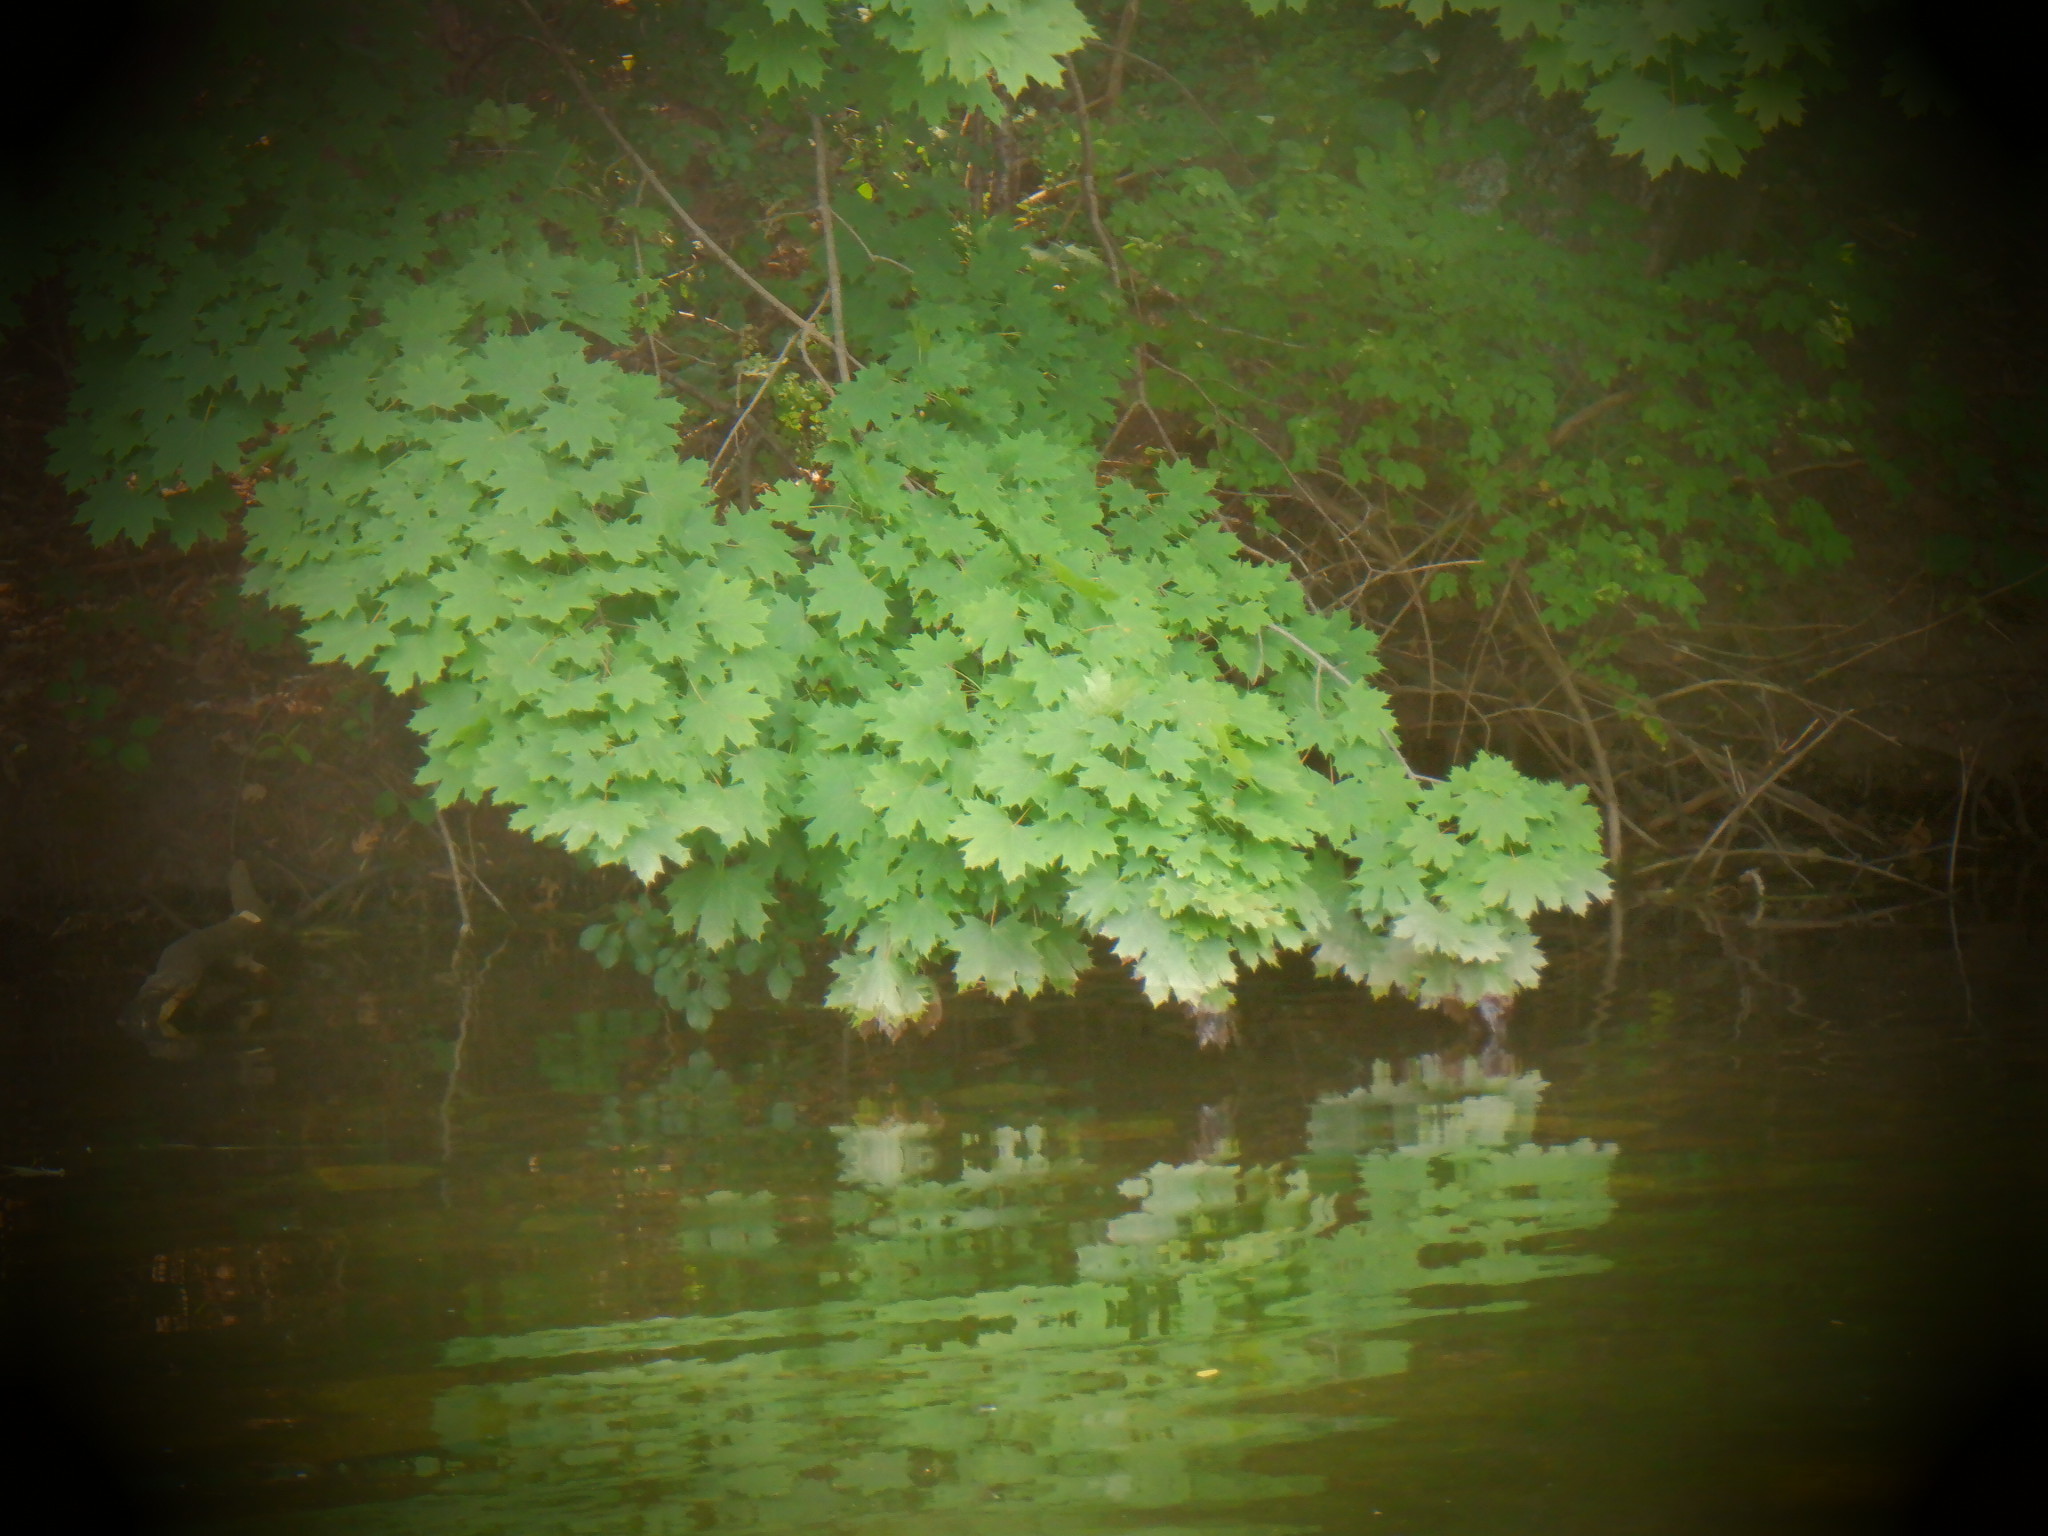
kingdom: Plantae
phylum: Tracheophyta
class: Magnoliopsida
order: Sapindales
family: Sapindaceae
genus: Acer
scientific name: Acer platanoides
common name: Norway maple
